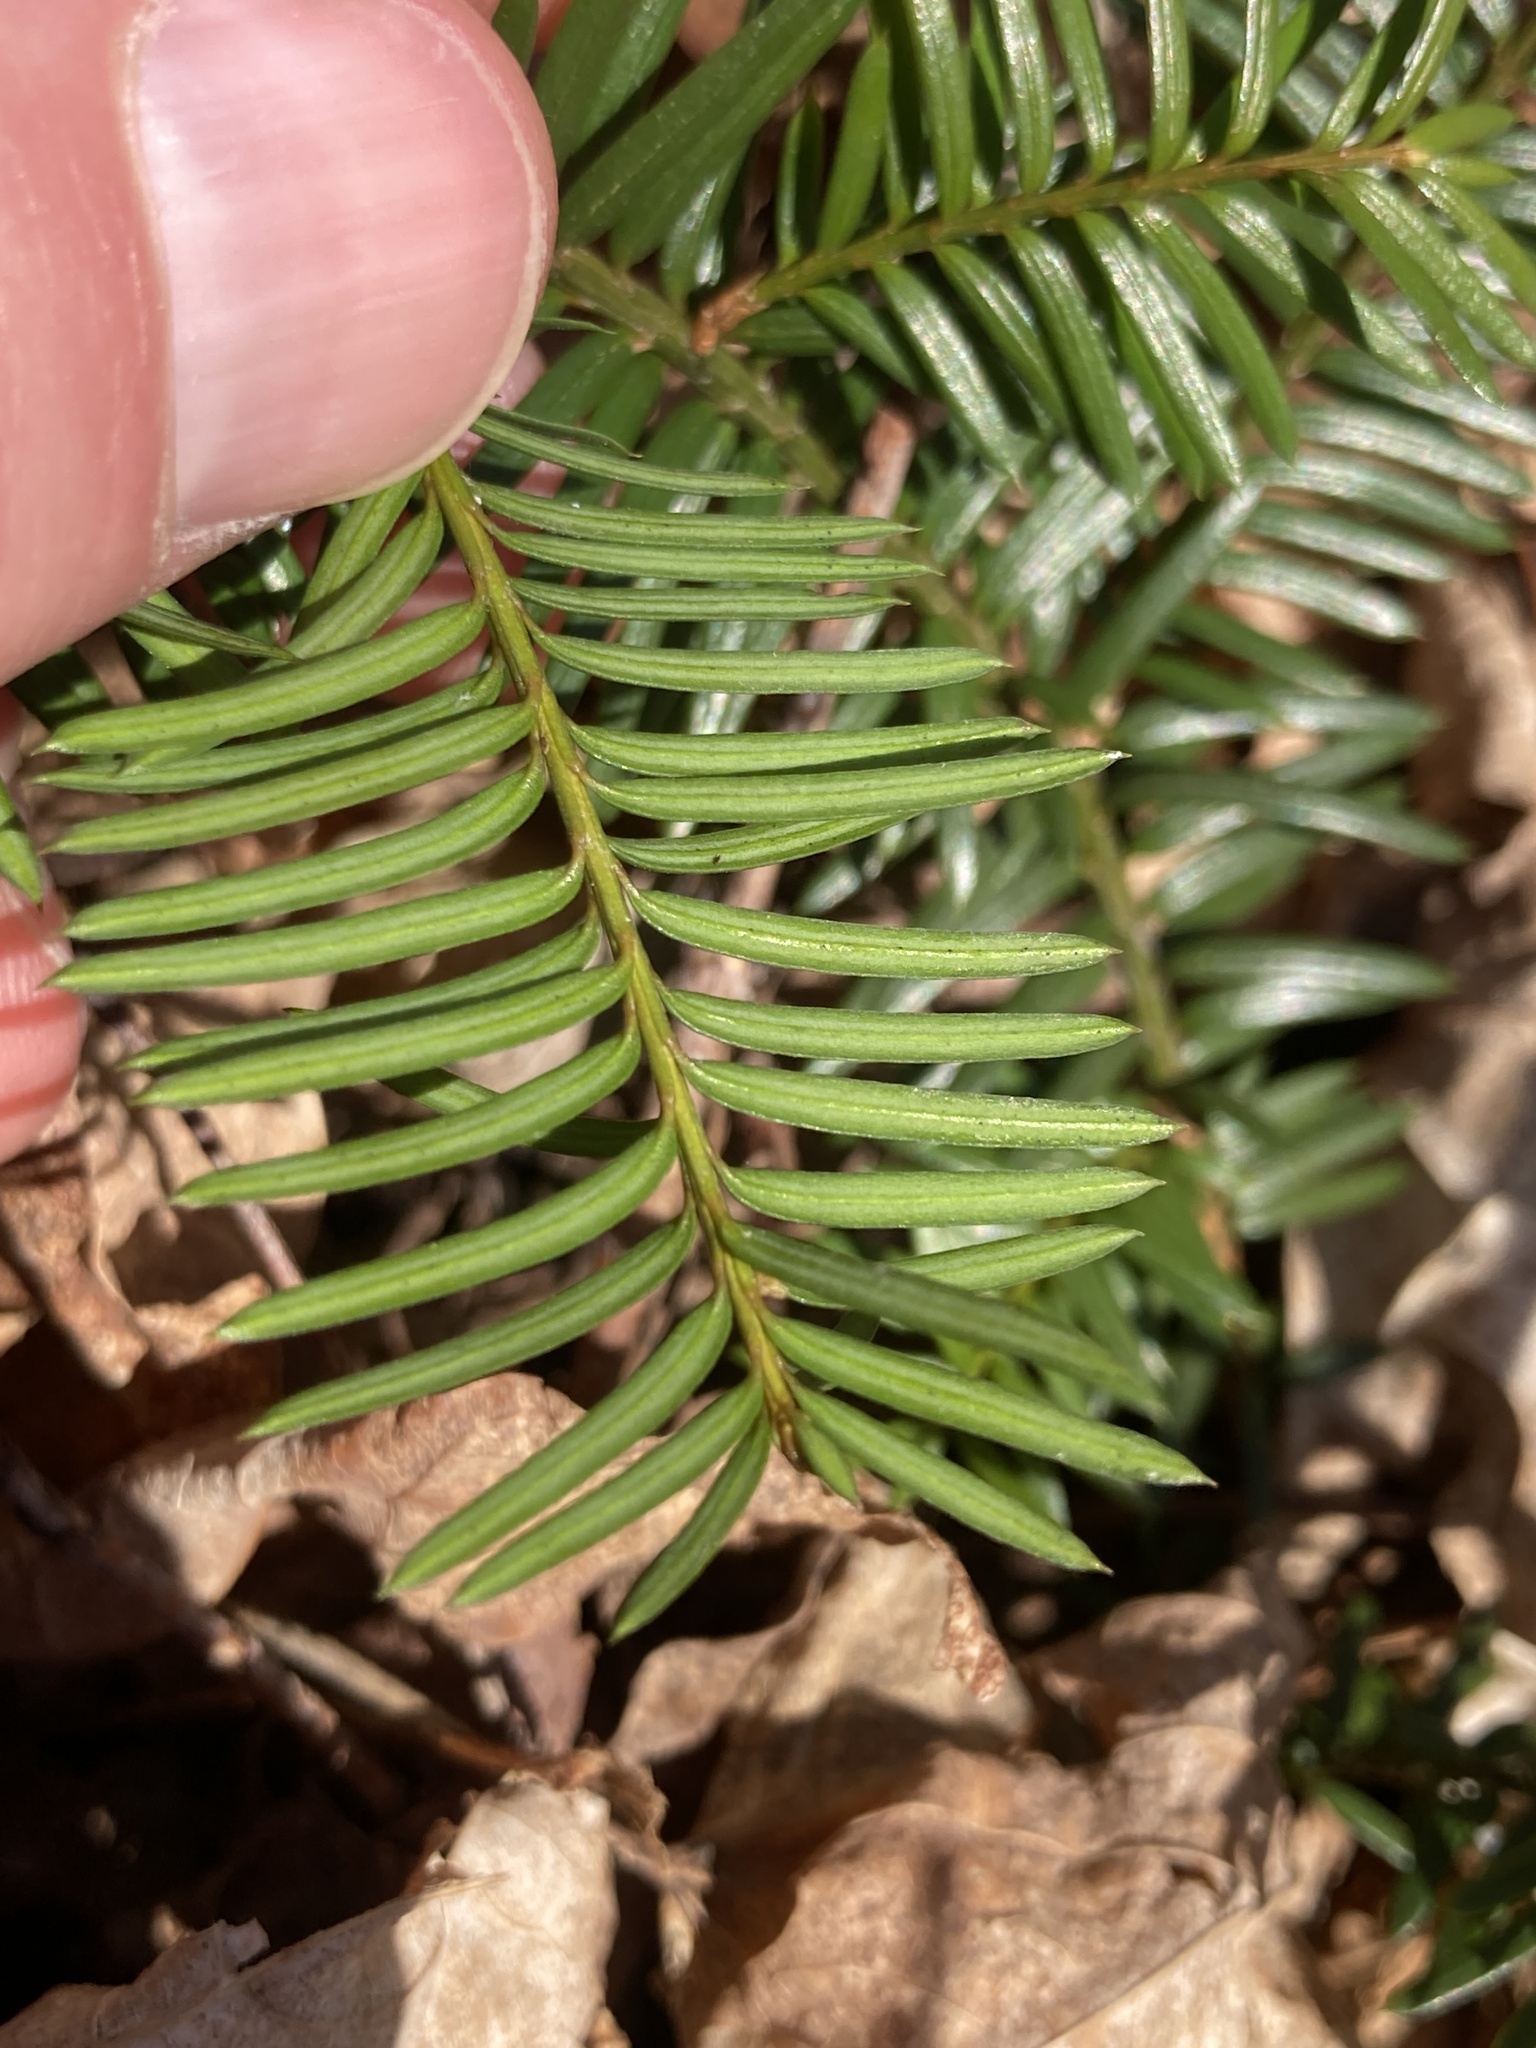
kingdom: Plantae
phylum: Tracheophyta
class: Pinopsida
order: Pinales
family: Taxaceae
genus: Taxus
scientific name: Taxus canadensis
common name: American yew
